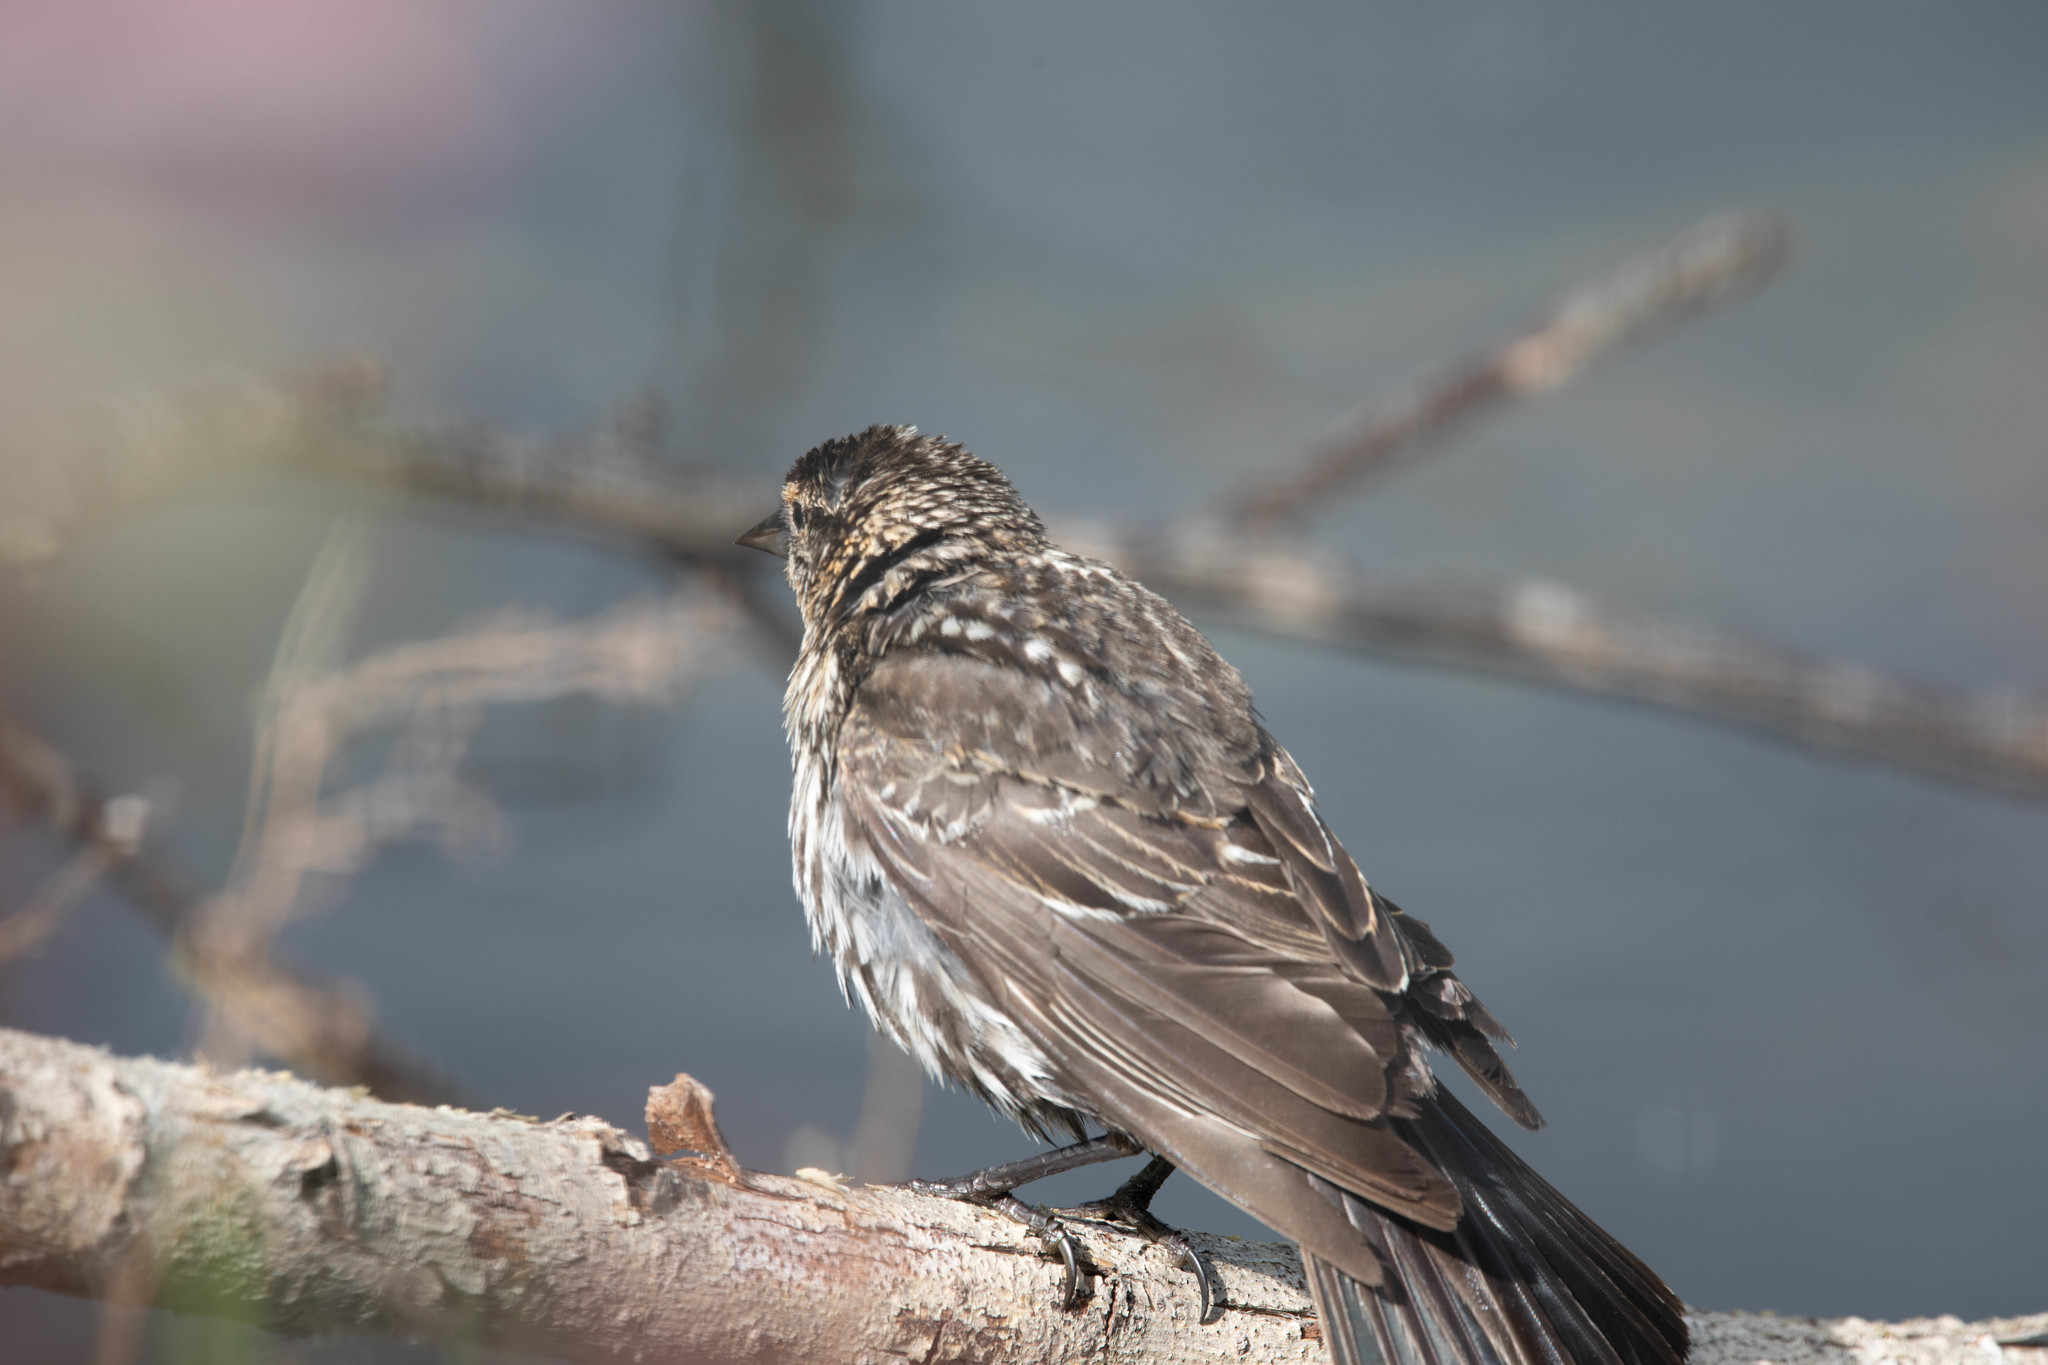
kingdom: Animalia
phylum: Chordata
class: Aves
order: Passeriformes
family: Icteridae
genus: Agelaius
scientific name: Agelaius phoeniceus
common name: Red-winged blackbird
